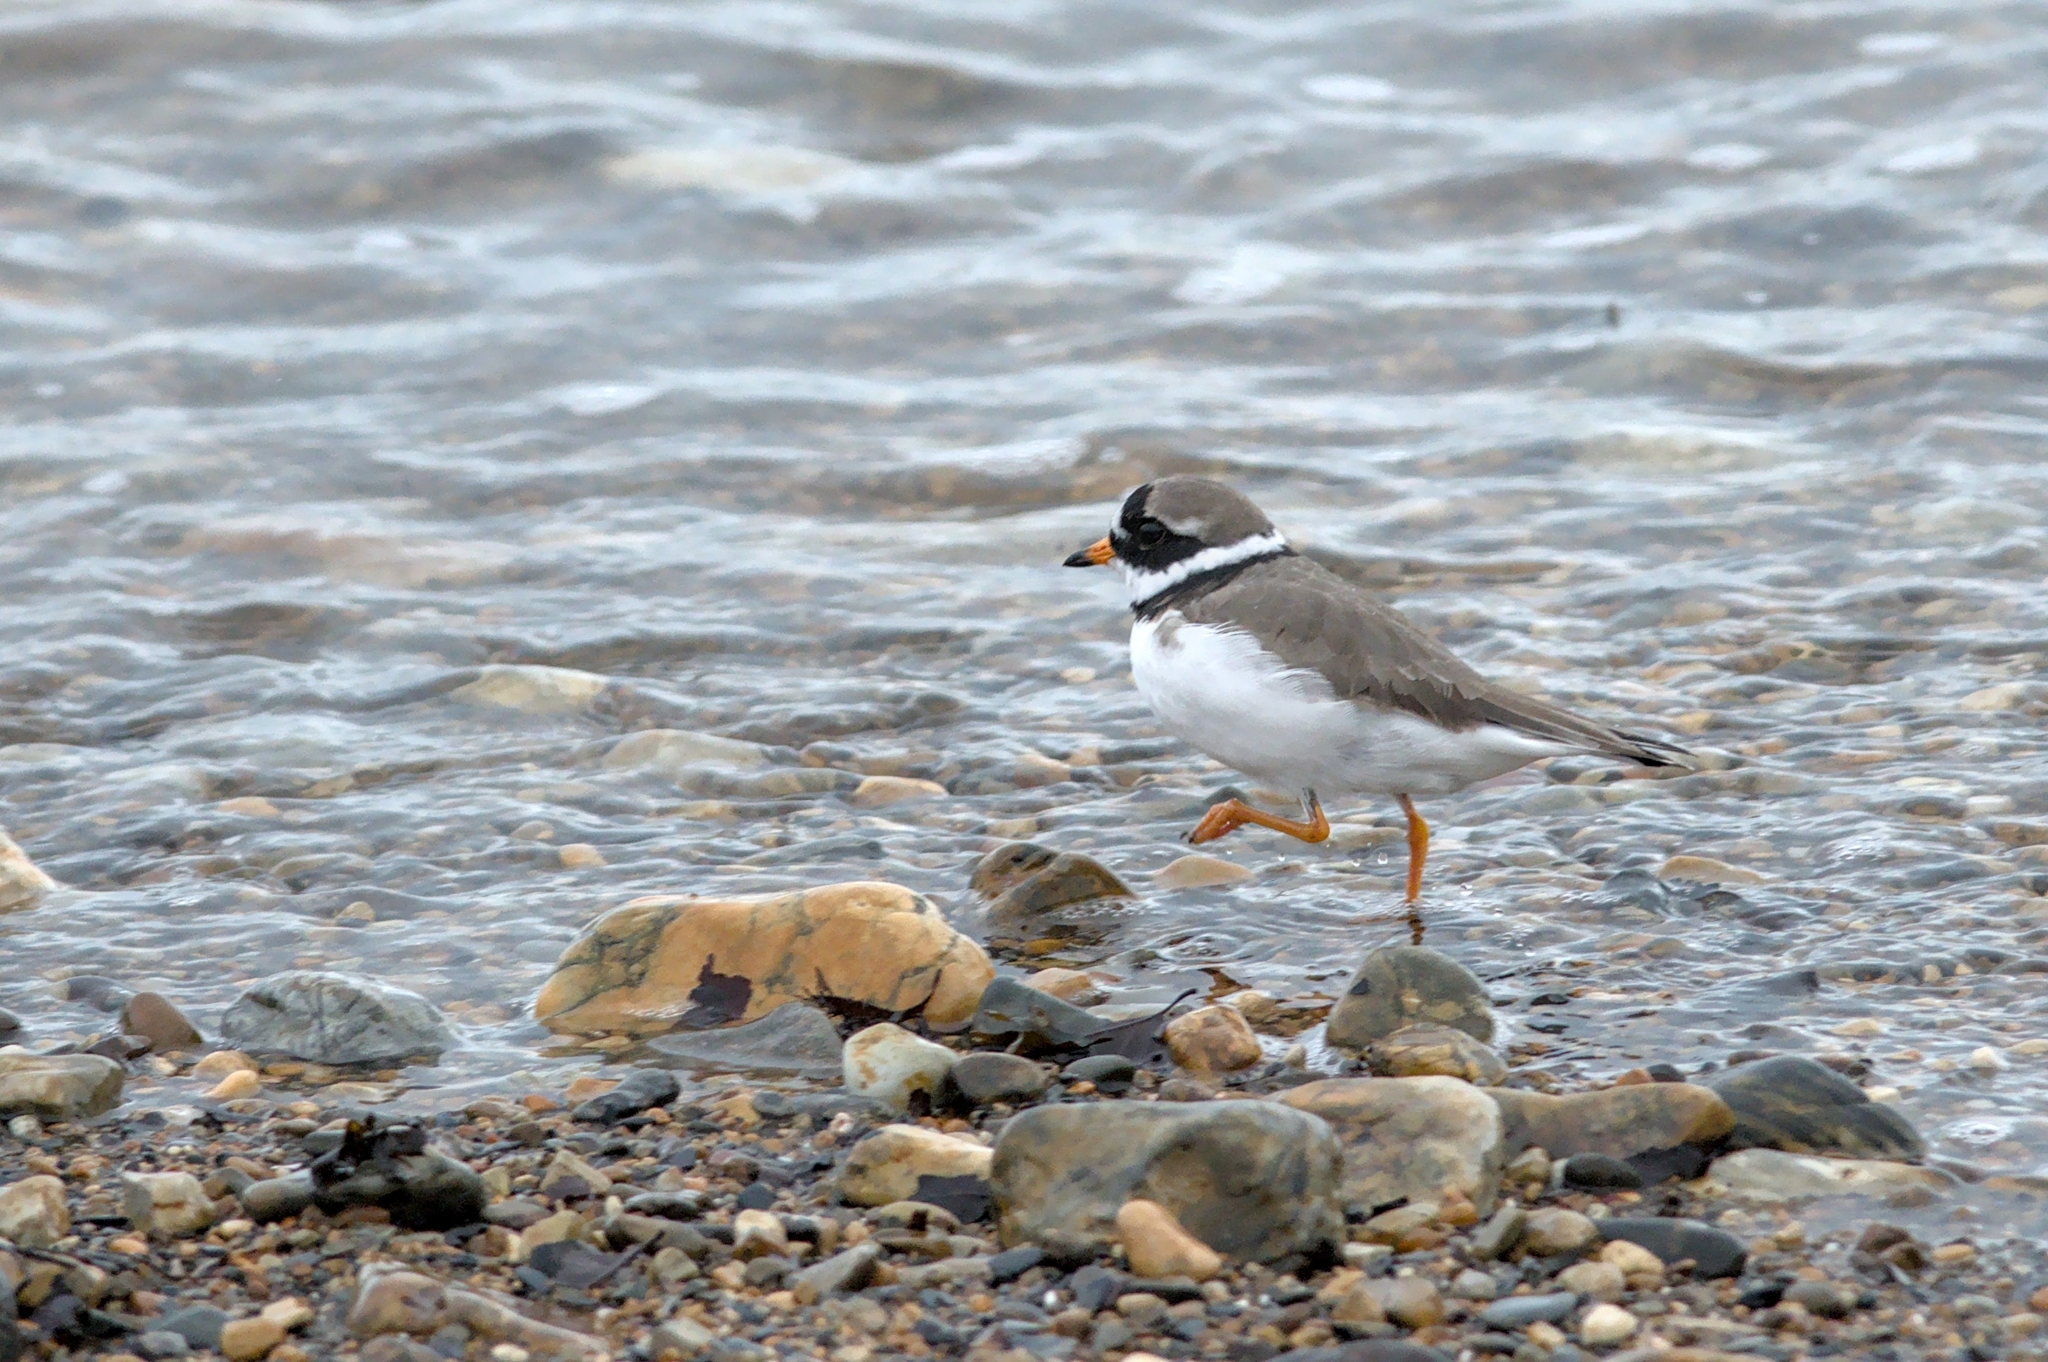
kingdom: Animalia
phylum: Chordata
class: Aves
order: Charadriiformes
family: Charadriidae
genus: Charadrius
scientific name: Charadrius hiaticula
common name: Common ringed plover
